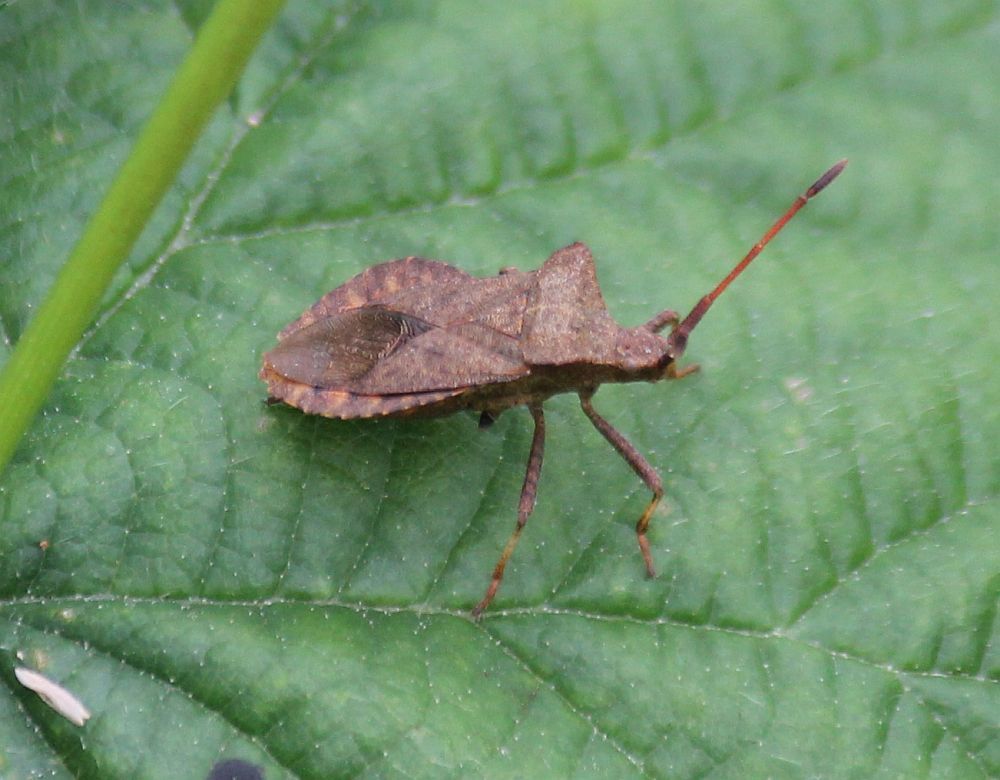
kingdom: Animalia
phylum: Arthropoda
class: Insecta
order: Hemiptera
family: Coreidae
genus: Coreus
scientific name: Coreus marginatus
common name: Dock bug
